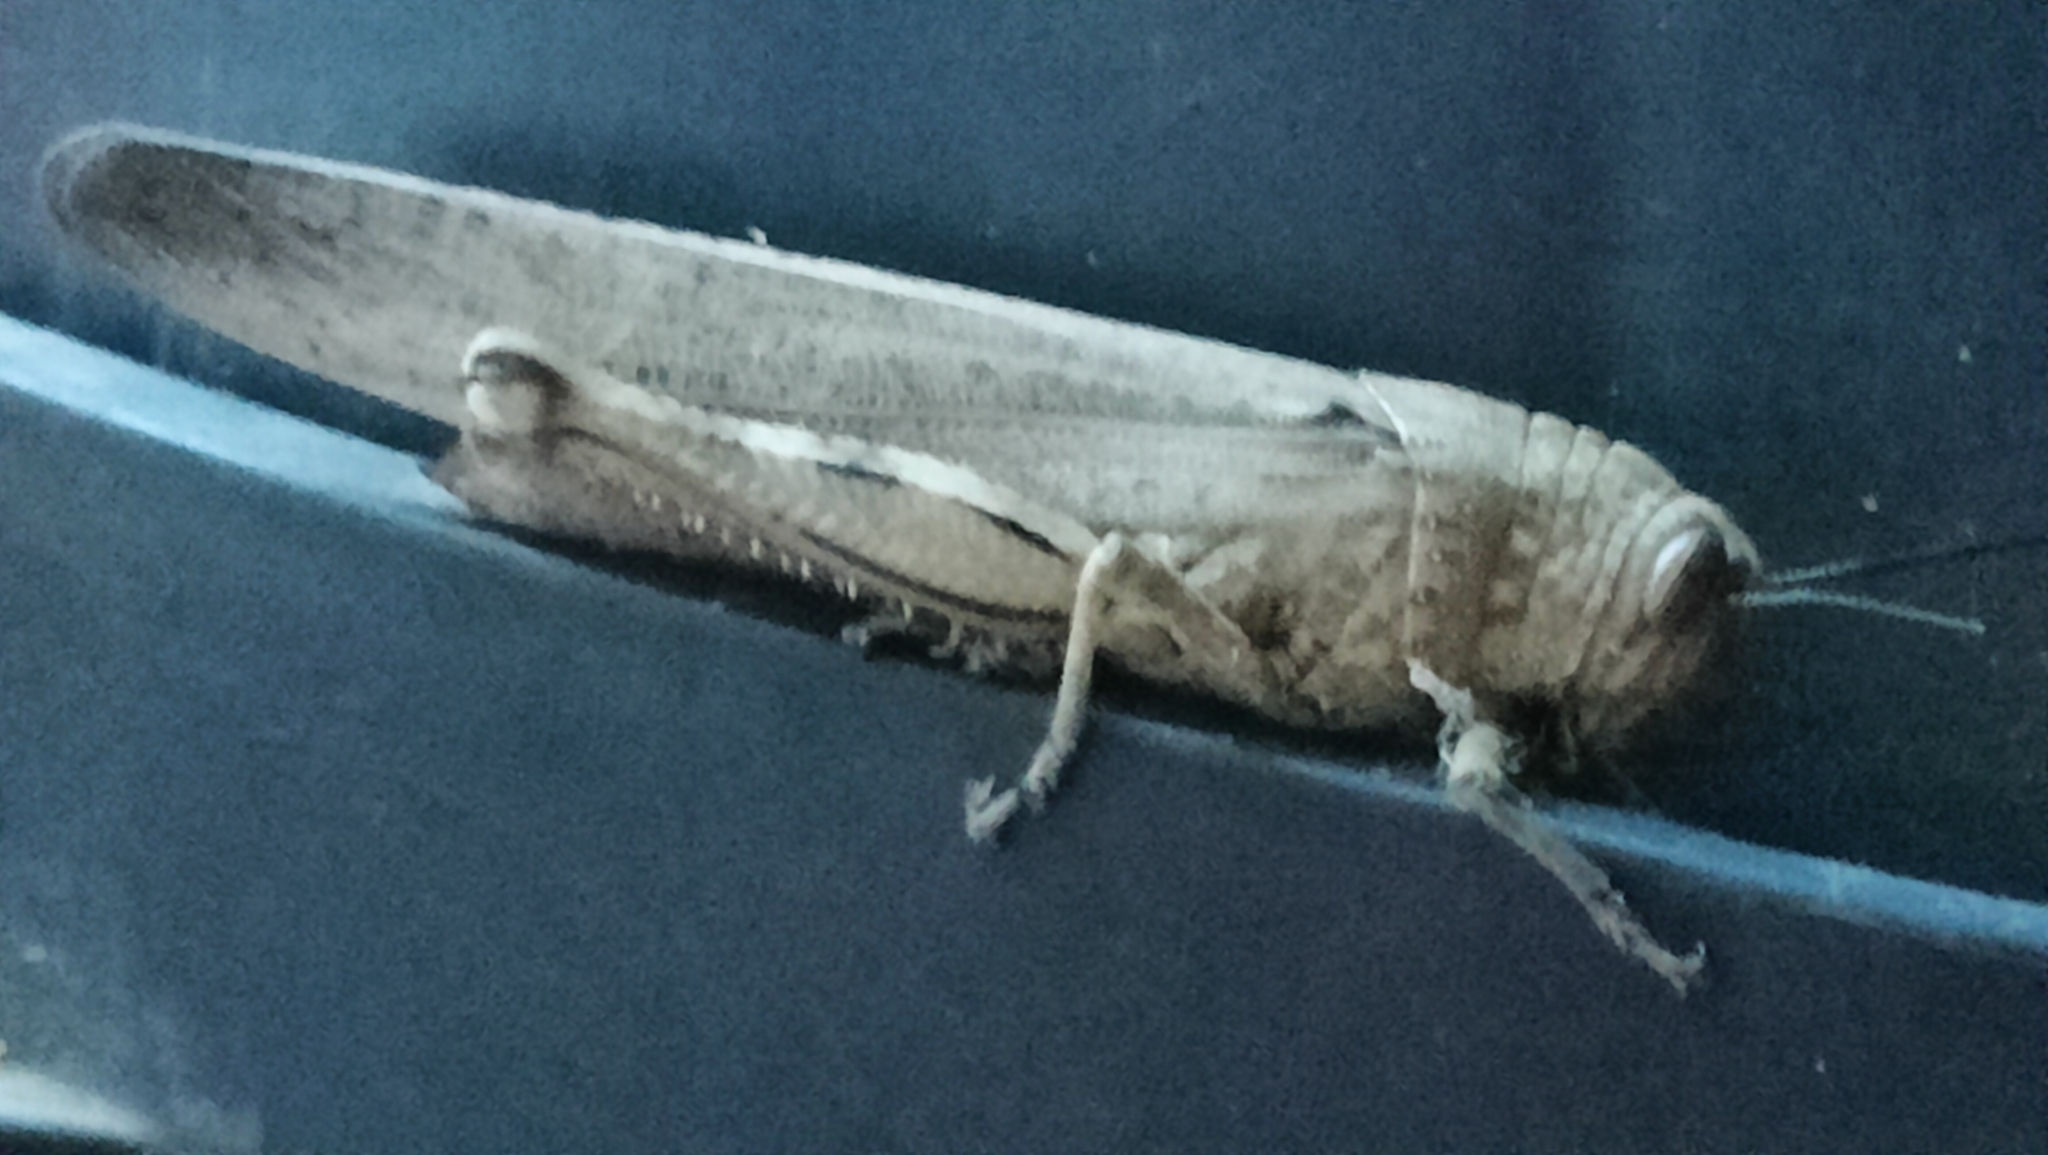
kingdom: Animalia
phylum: Arthropoda
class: Insecta
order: Orthoptera
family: Acrididae
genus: Anacridium
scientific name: Anacridium aegyptium
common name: Egyptian grasshopper
